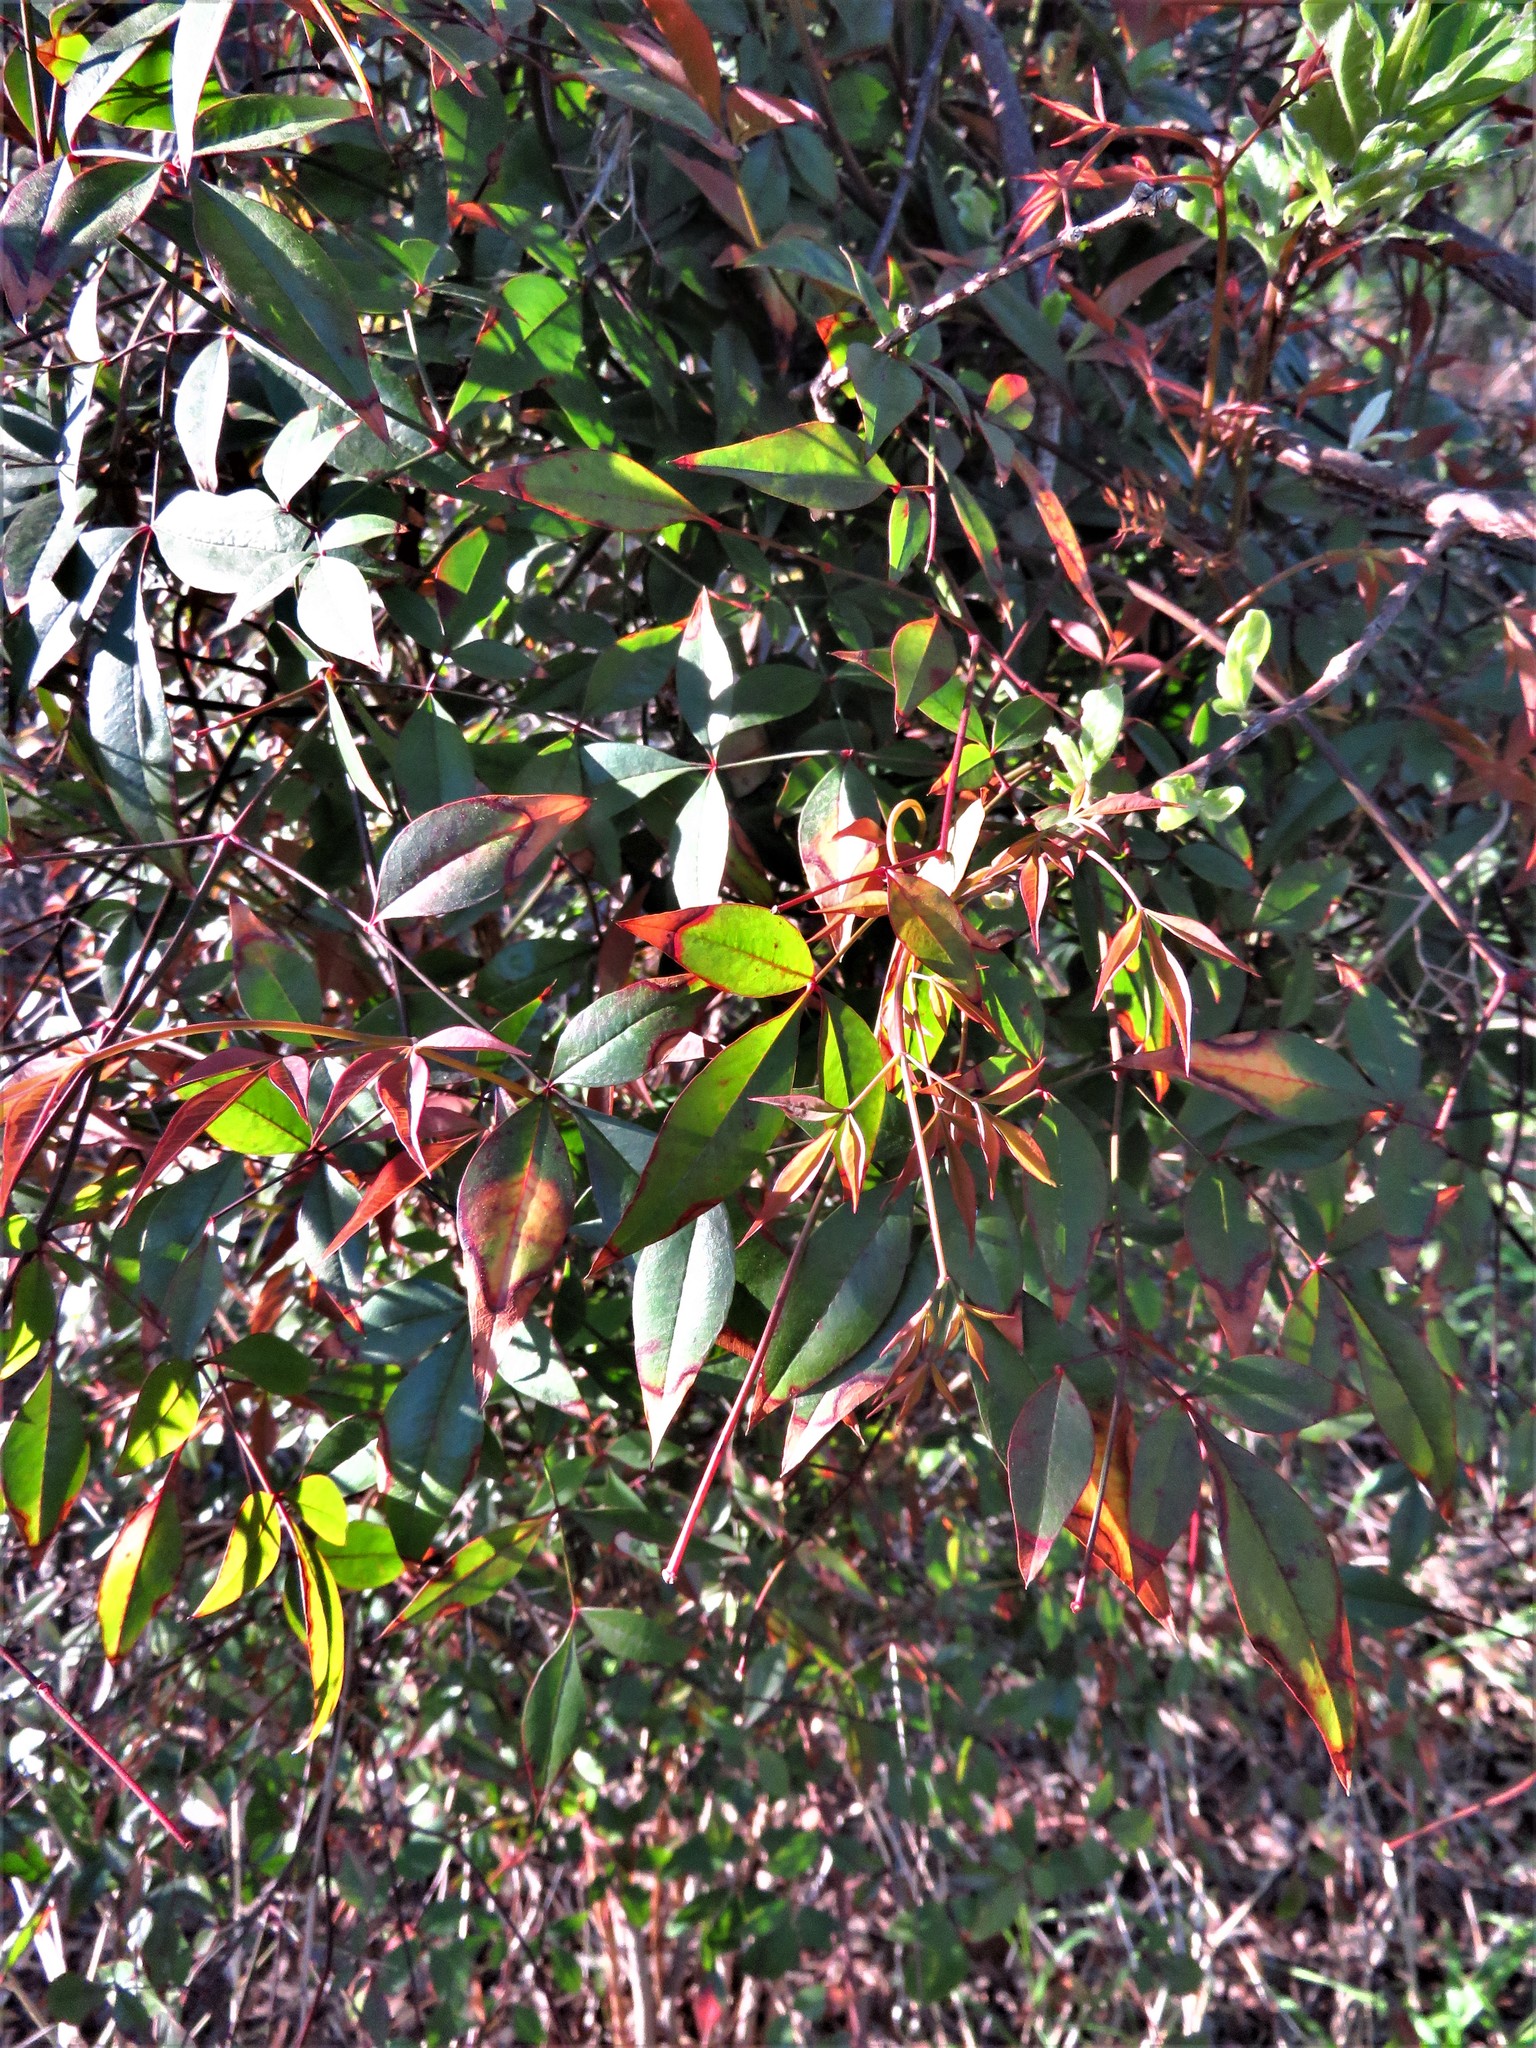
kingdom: Plantae
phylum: Tracheophyta
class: Magnoliopsida
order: Ranunculales
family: Berberidaceae
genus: Nandina
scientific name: Nandina domestica
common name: Sacred bamboo
